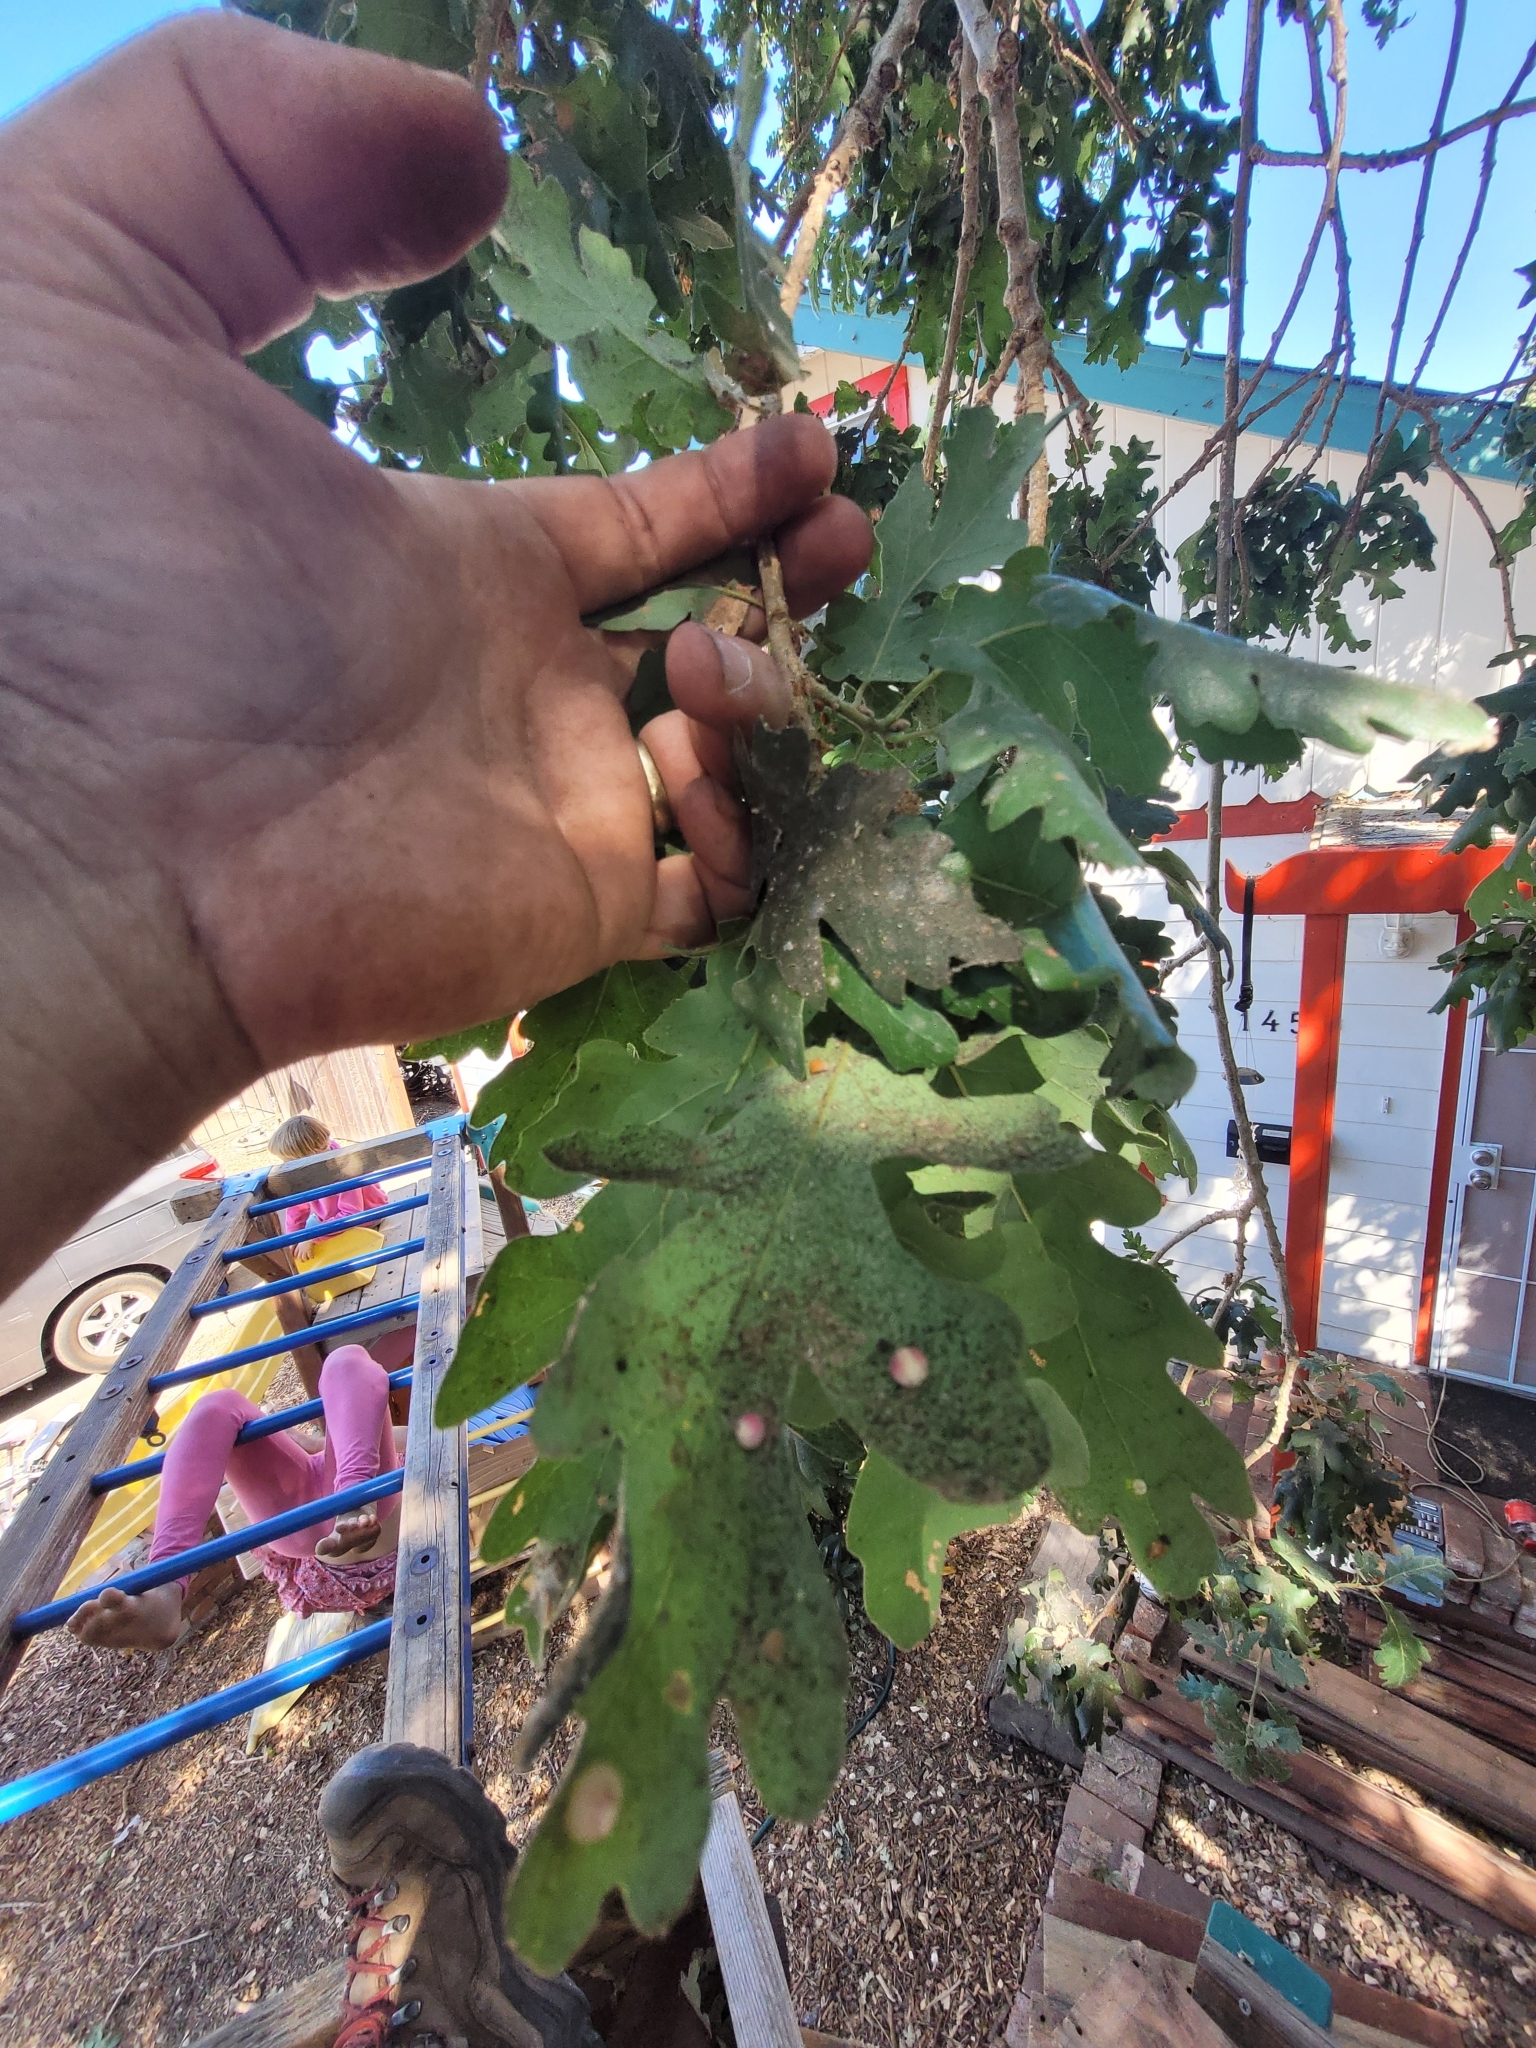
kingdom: Animalia
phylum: Arthropoda
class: Insecta
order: Hymenoptera
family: Cynipidae
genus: Andricus
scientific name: Andricus
